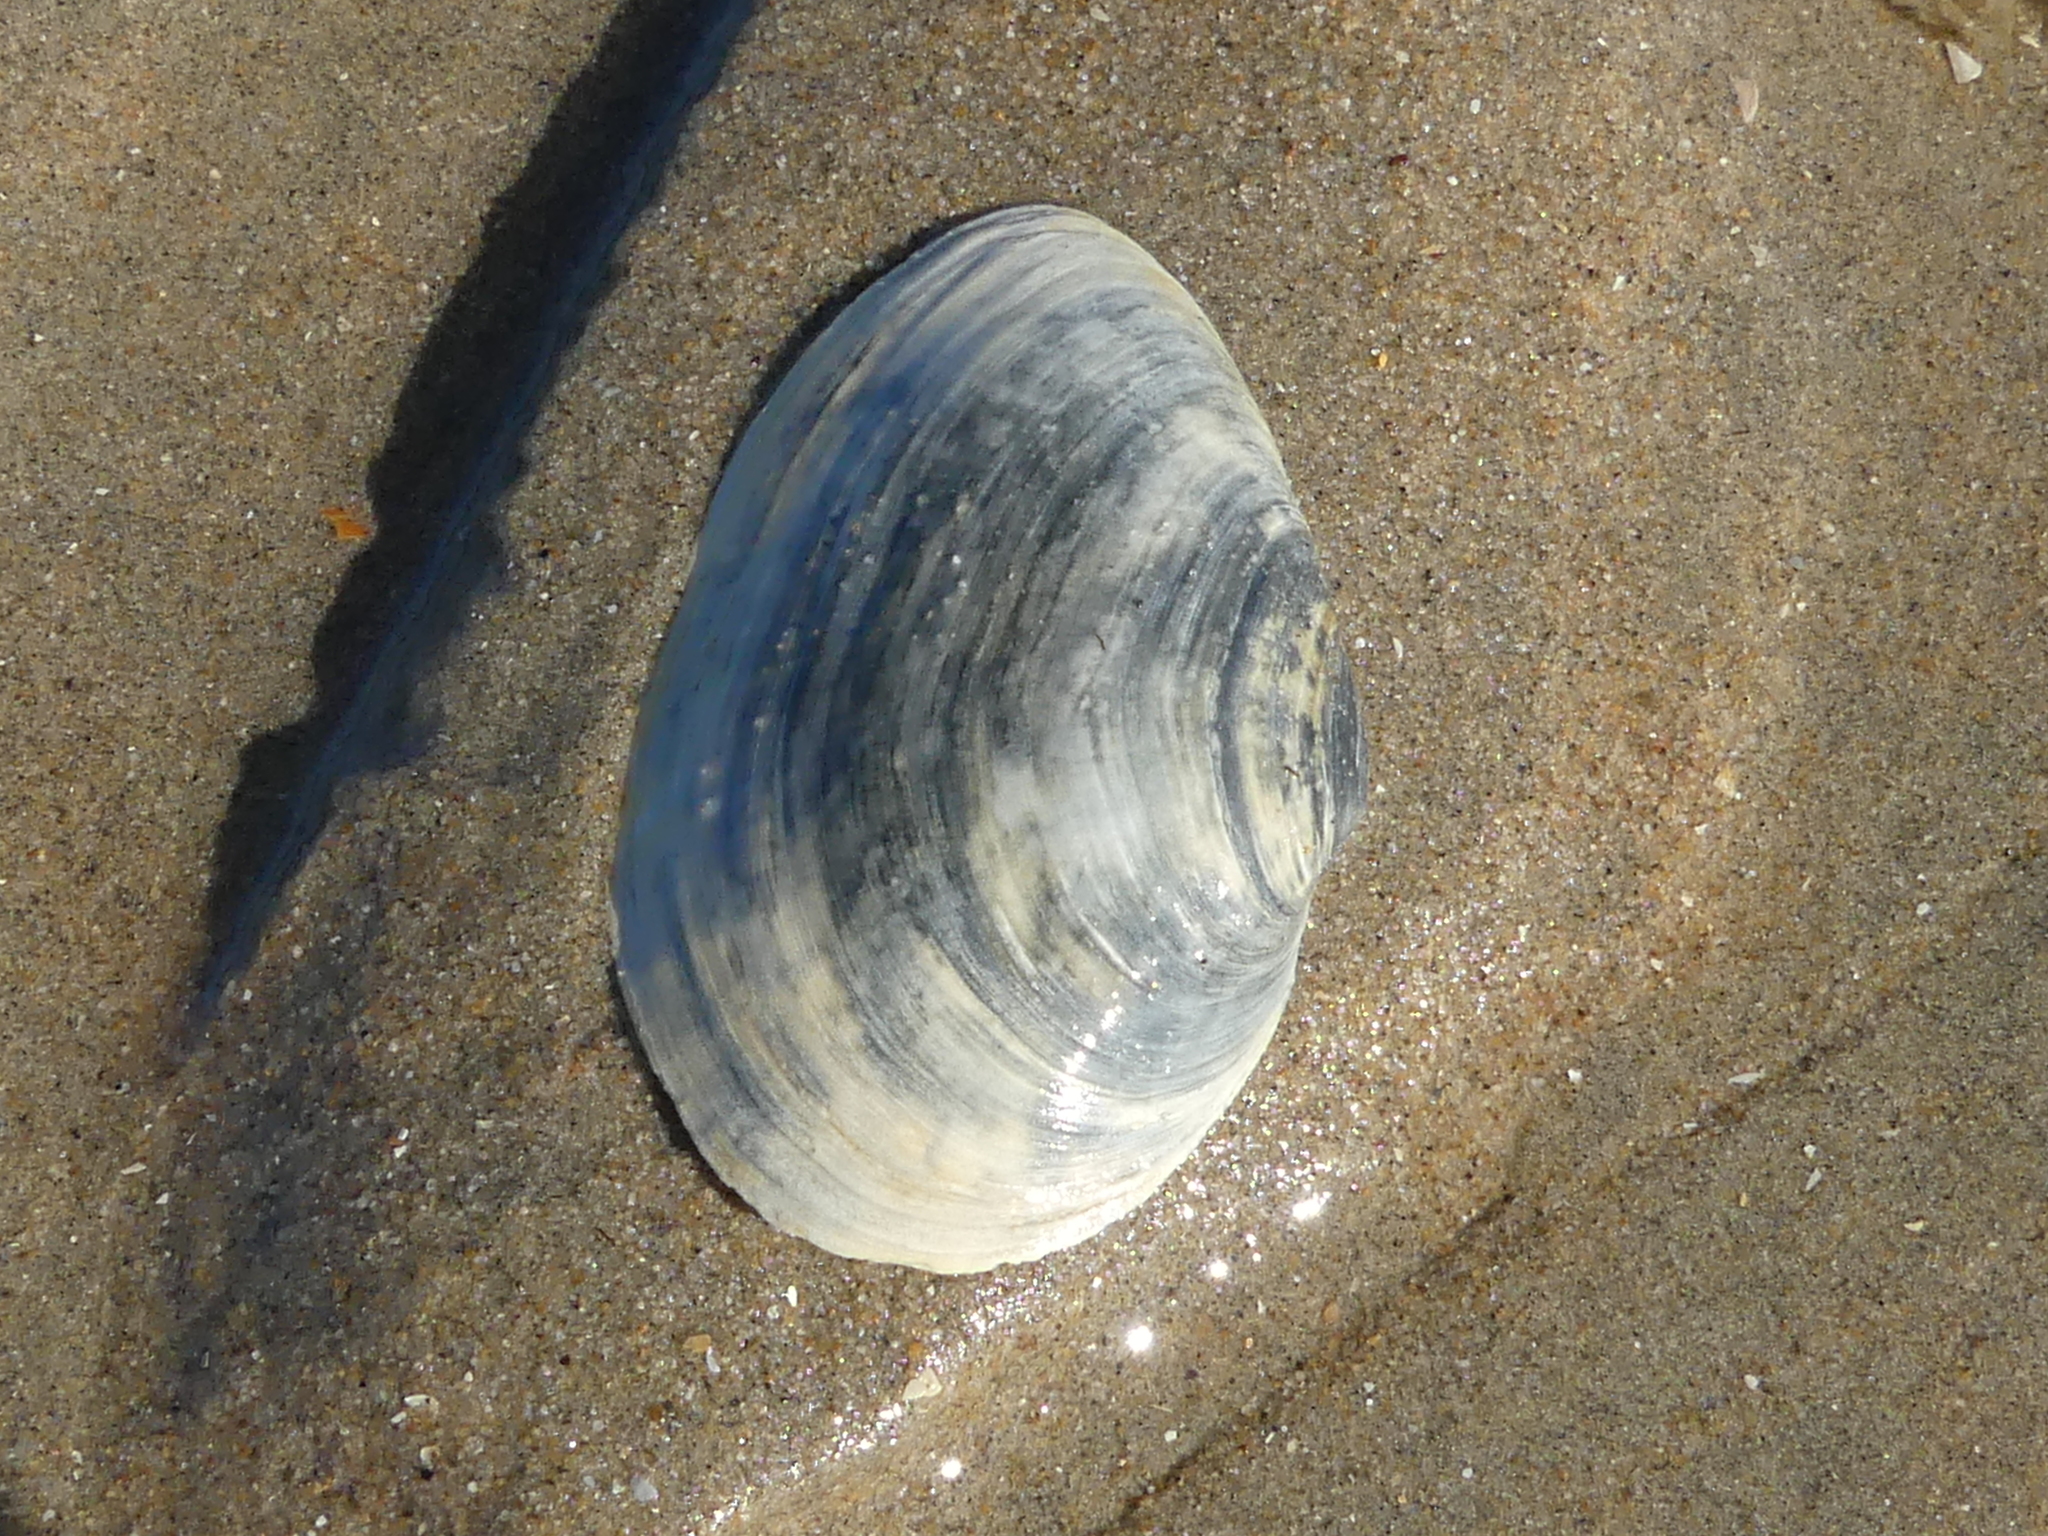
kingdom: Animalia
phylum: Mollusca
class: Bivalvia
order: Myida
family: Myidae
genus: Mya
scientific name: Mya arenaria
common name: Soft-shelled clam
